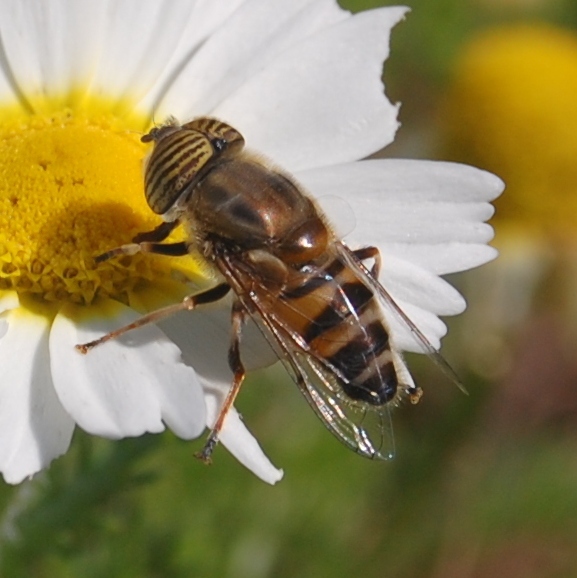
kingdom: Animalia
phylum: Arthropoda
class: Insecta
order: Diptera
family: Syrphidae
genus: Eristalinus
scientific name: Eristalinus taeniops
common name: Syrphid fly
